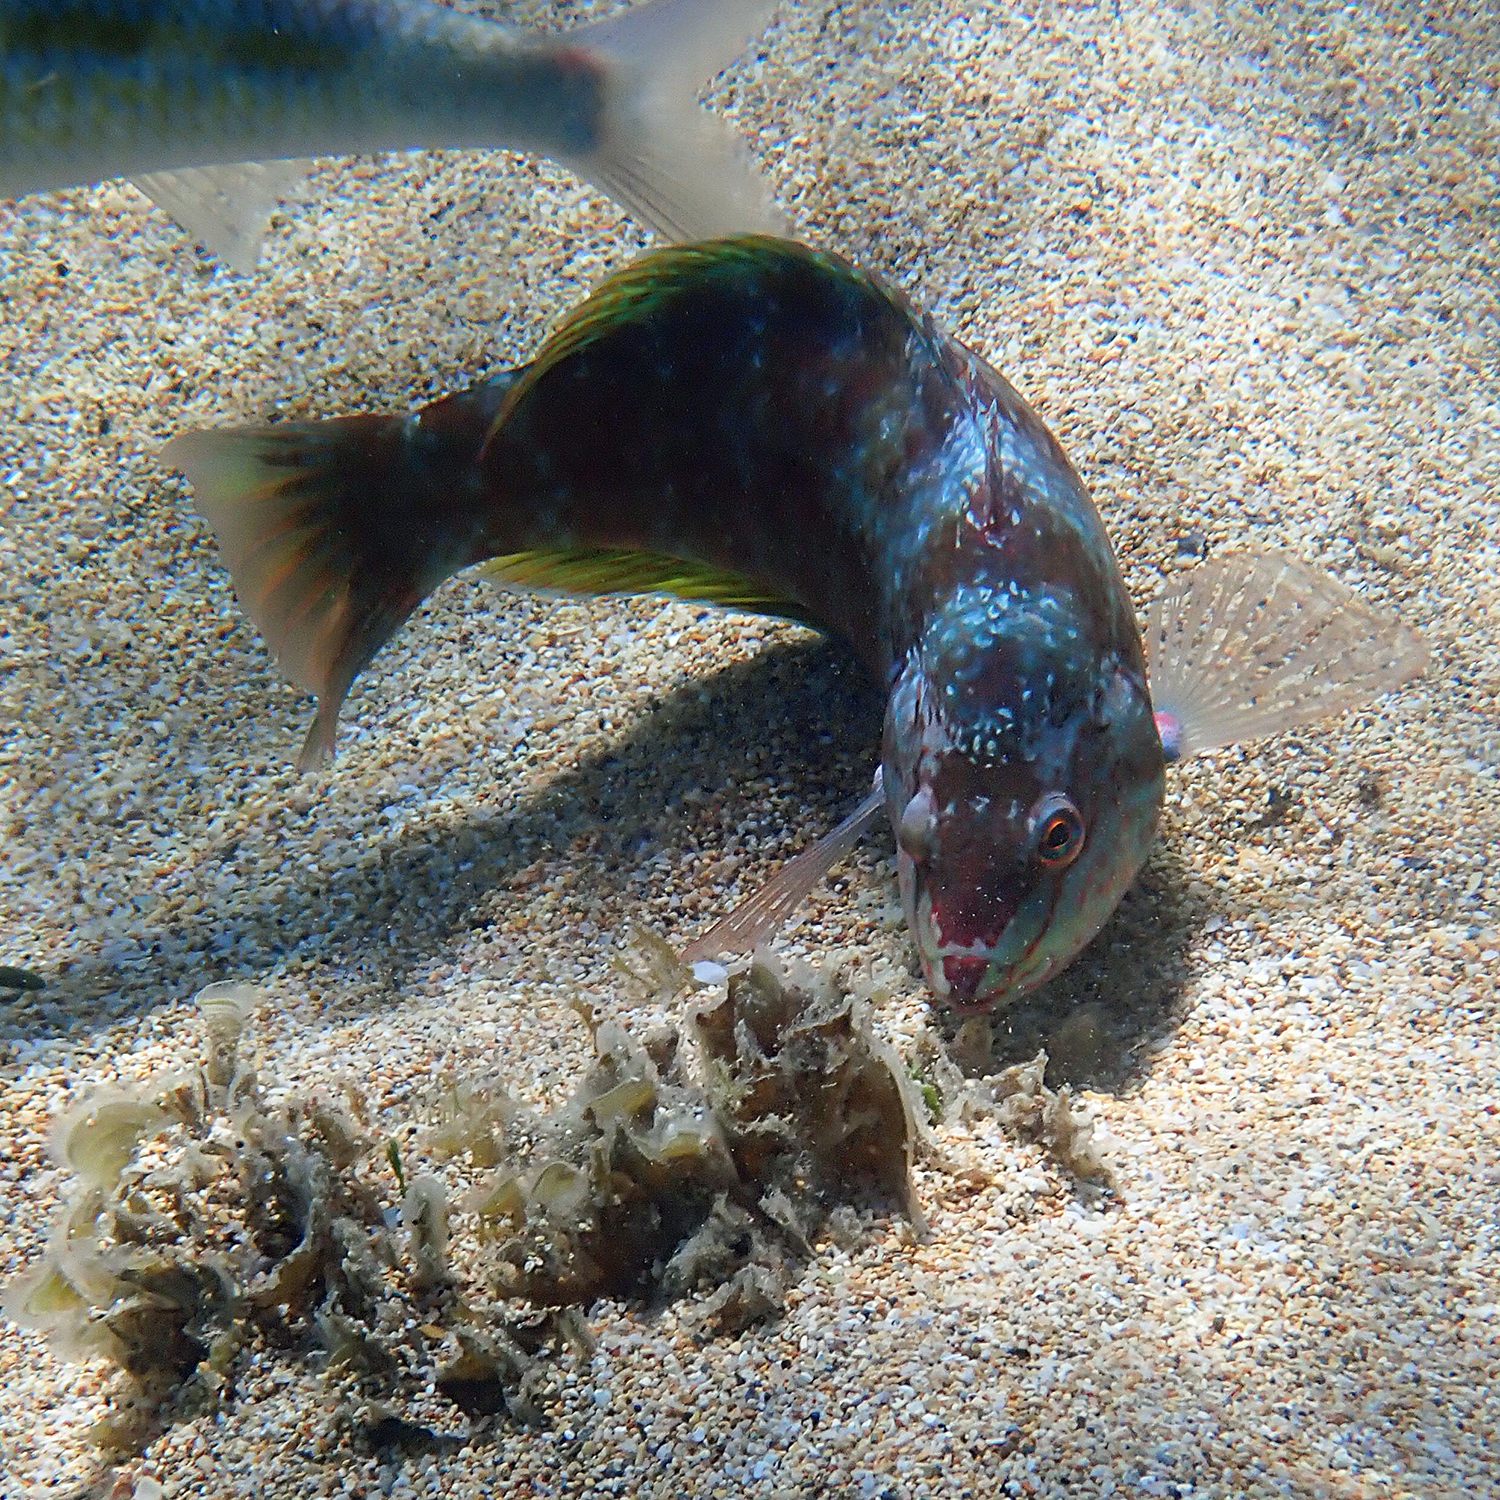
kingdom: Animalia
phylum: Chordata
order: Perciformes
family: Labridae
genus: Pseudolabrus
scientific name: Pseudolabrus luculentus
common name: Luculentus wrasse
